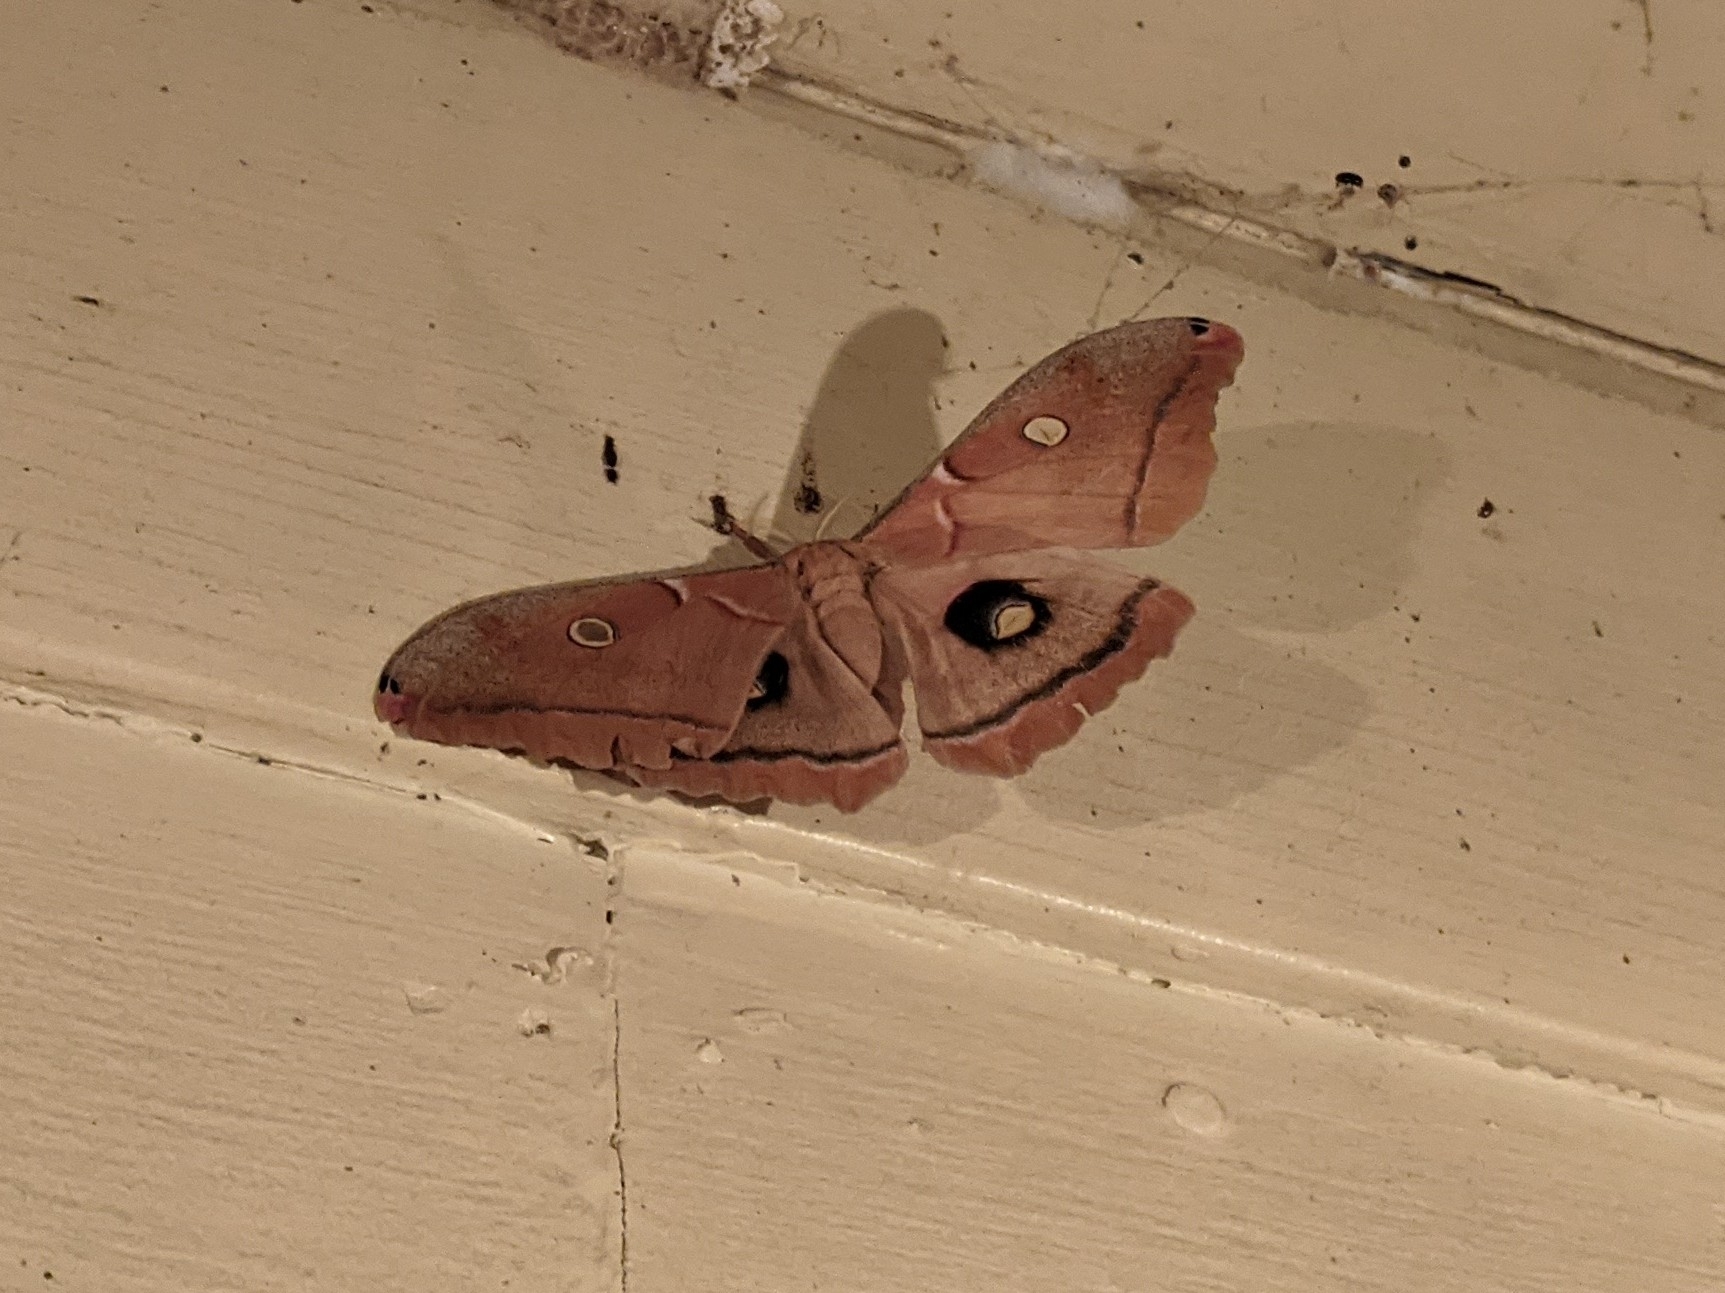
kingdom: Animalia
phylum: Arthropoda
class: Insecta
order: Lepidoptera
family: Saturniidae
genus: Antheraea
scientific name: Antheraea polyphemus
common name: Polyphemus moth
